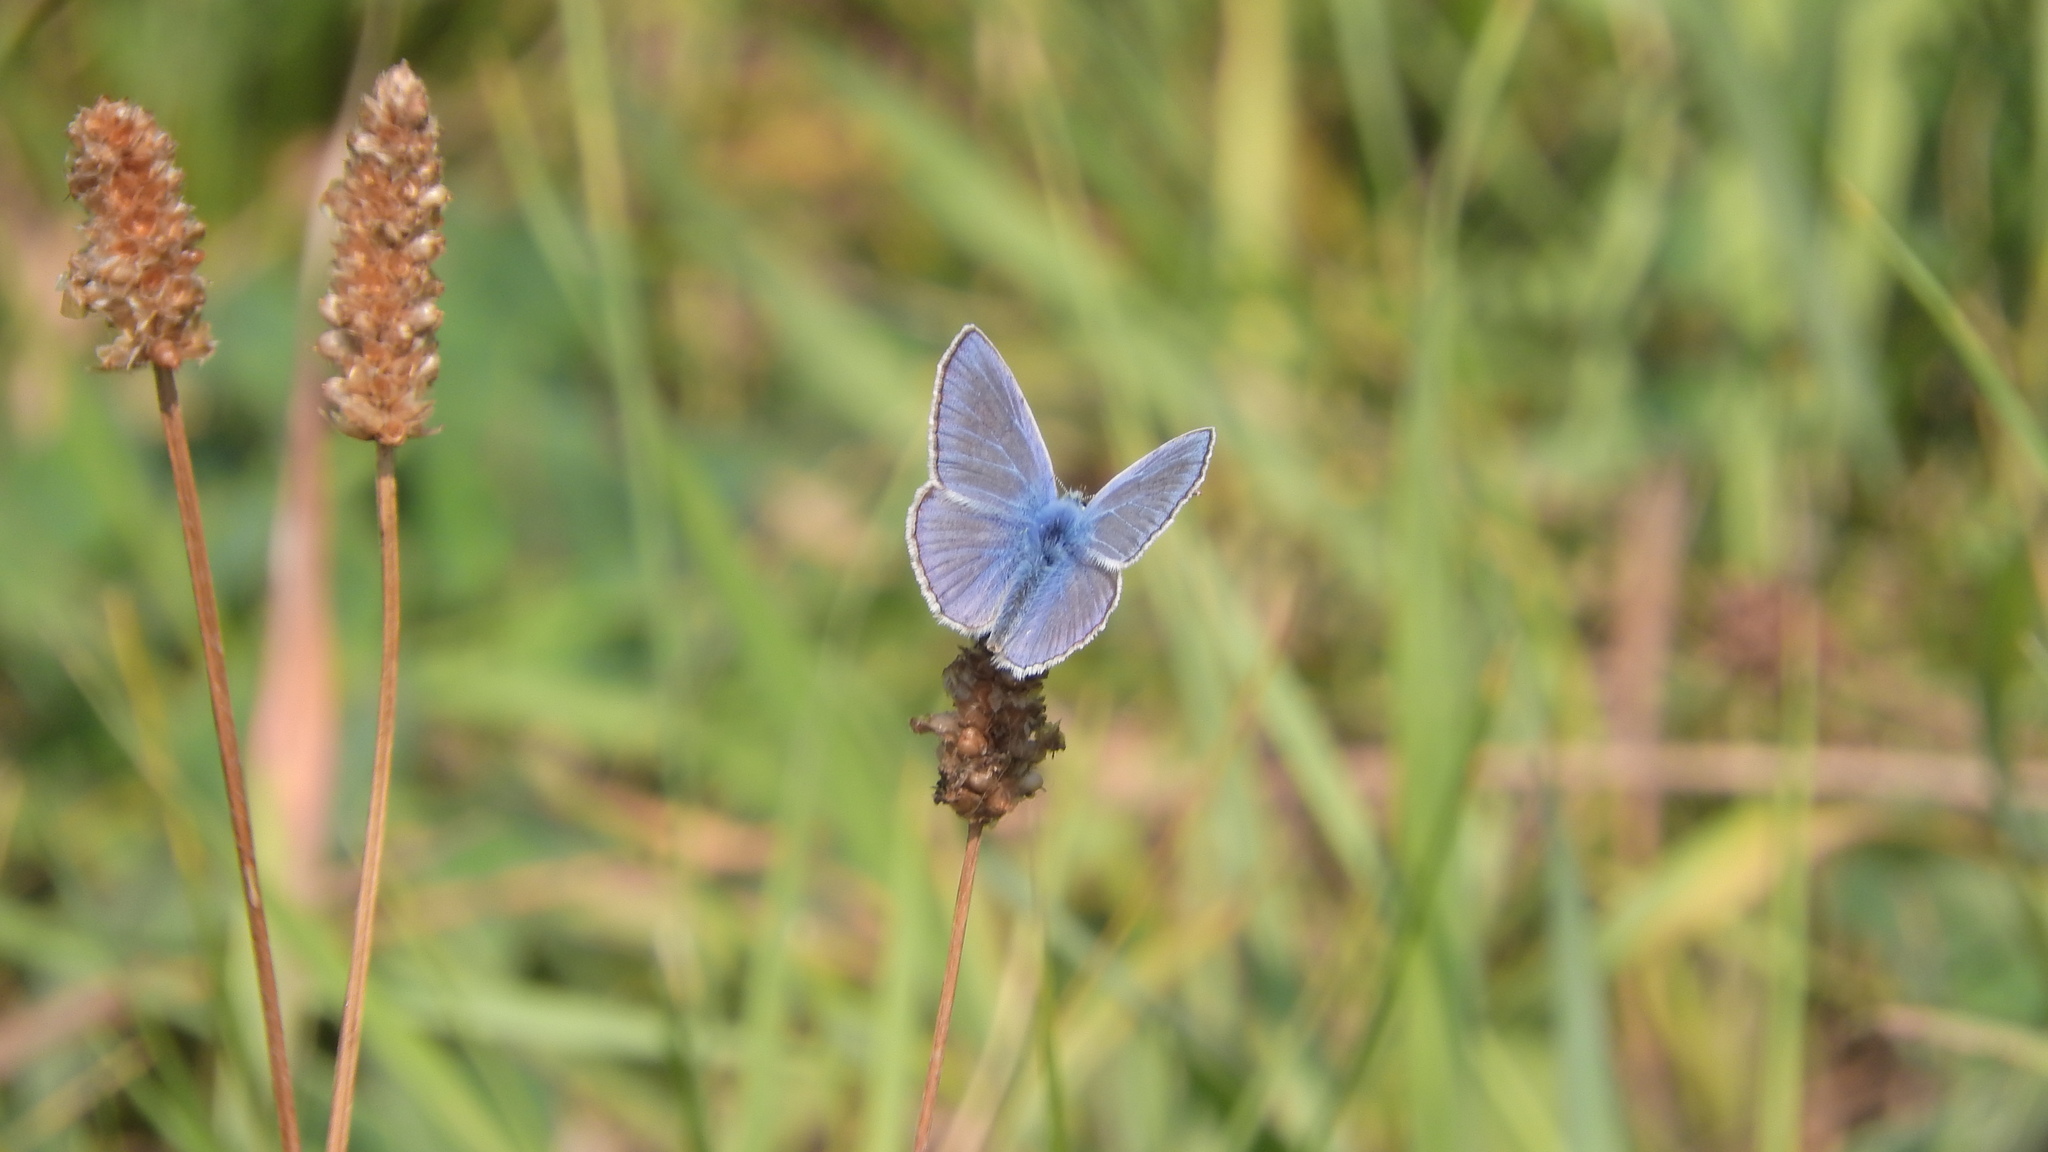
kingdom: Animalia
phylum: Arthropoda
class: Insecta
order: Lepidoptera
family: Lycaenidae
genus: Polyommatus
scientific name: Polyommatus icarus
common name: Common blue
